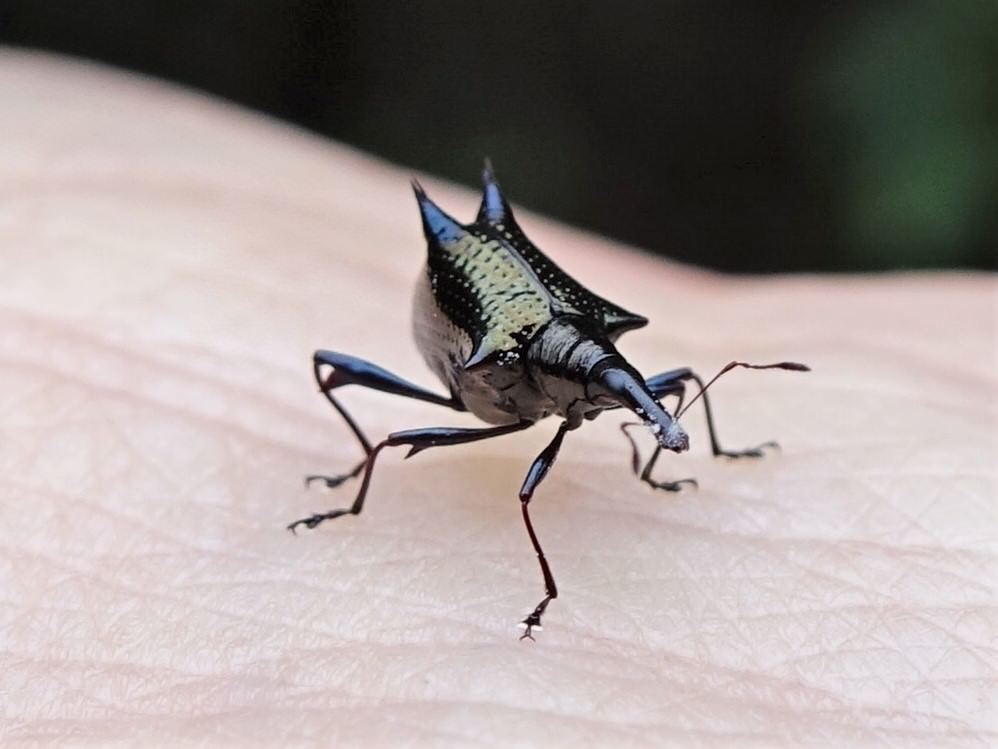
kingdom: Animalia
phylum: Arthropoda
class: Insecta
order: Coleoptera
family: Curculionidae
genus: Scolopterus
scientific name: Scolopterus aequus
